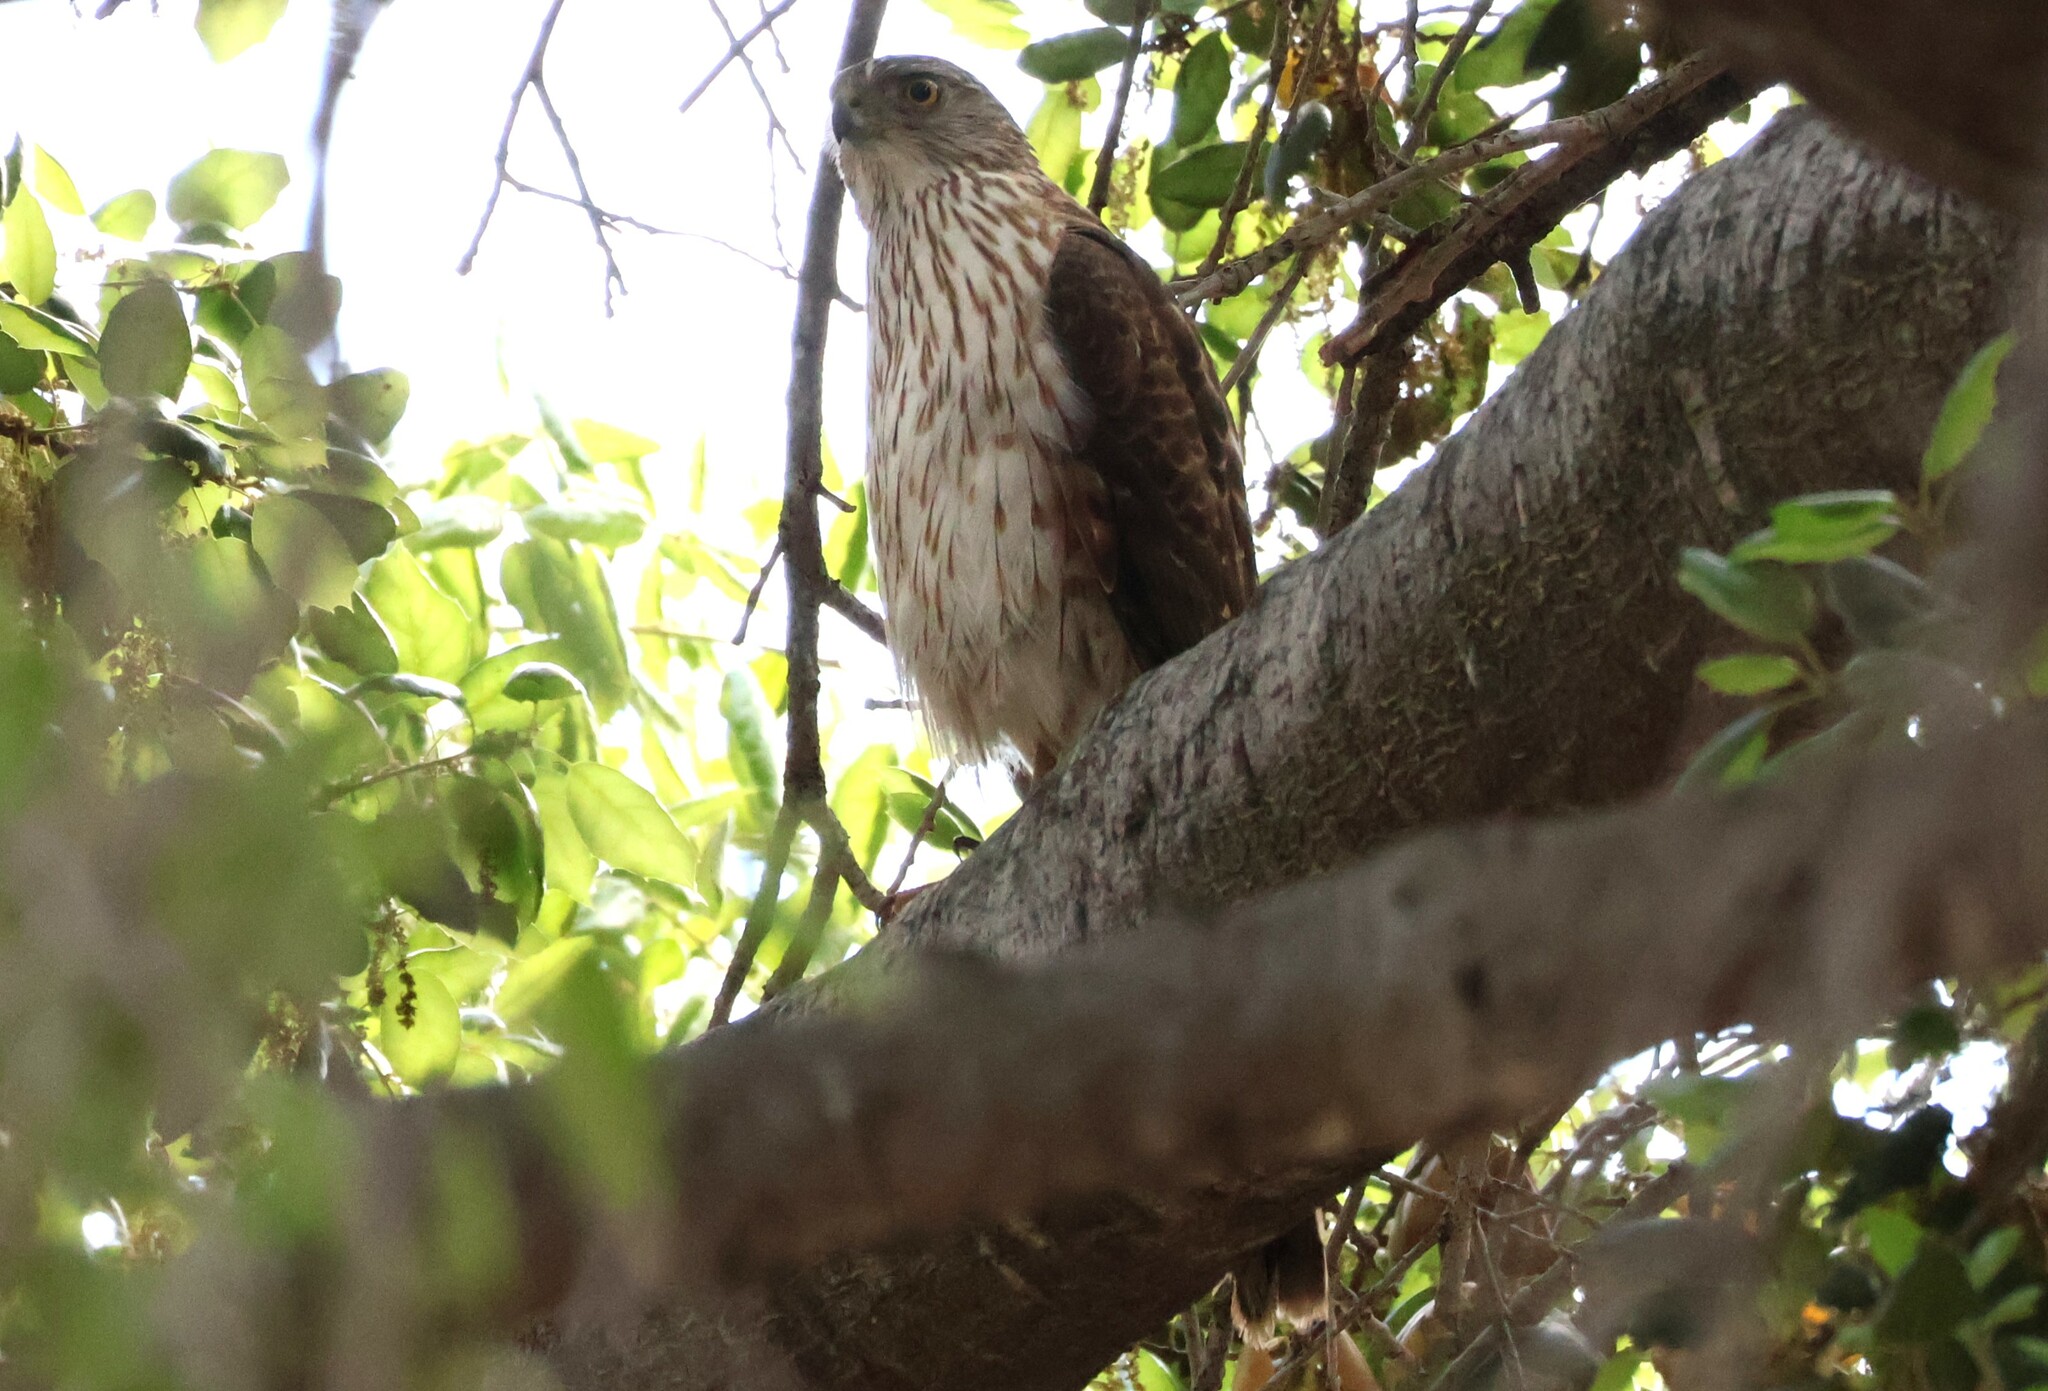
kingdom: Animalia
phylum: Chordata
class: Aves
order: Accipitriformes
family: Accipitridae
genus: Accipiter
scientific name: Accipiter cooperii
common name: Cooper's hawk
